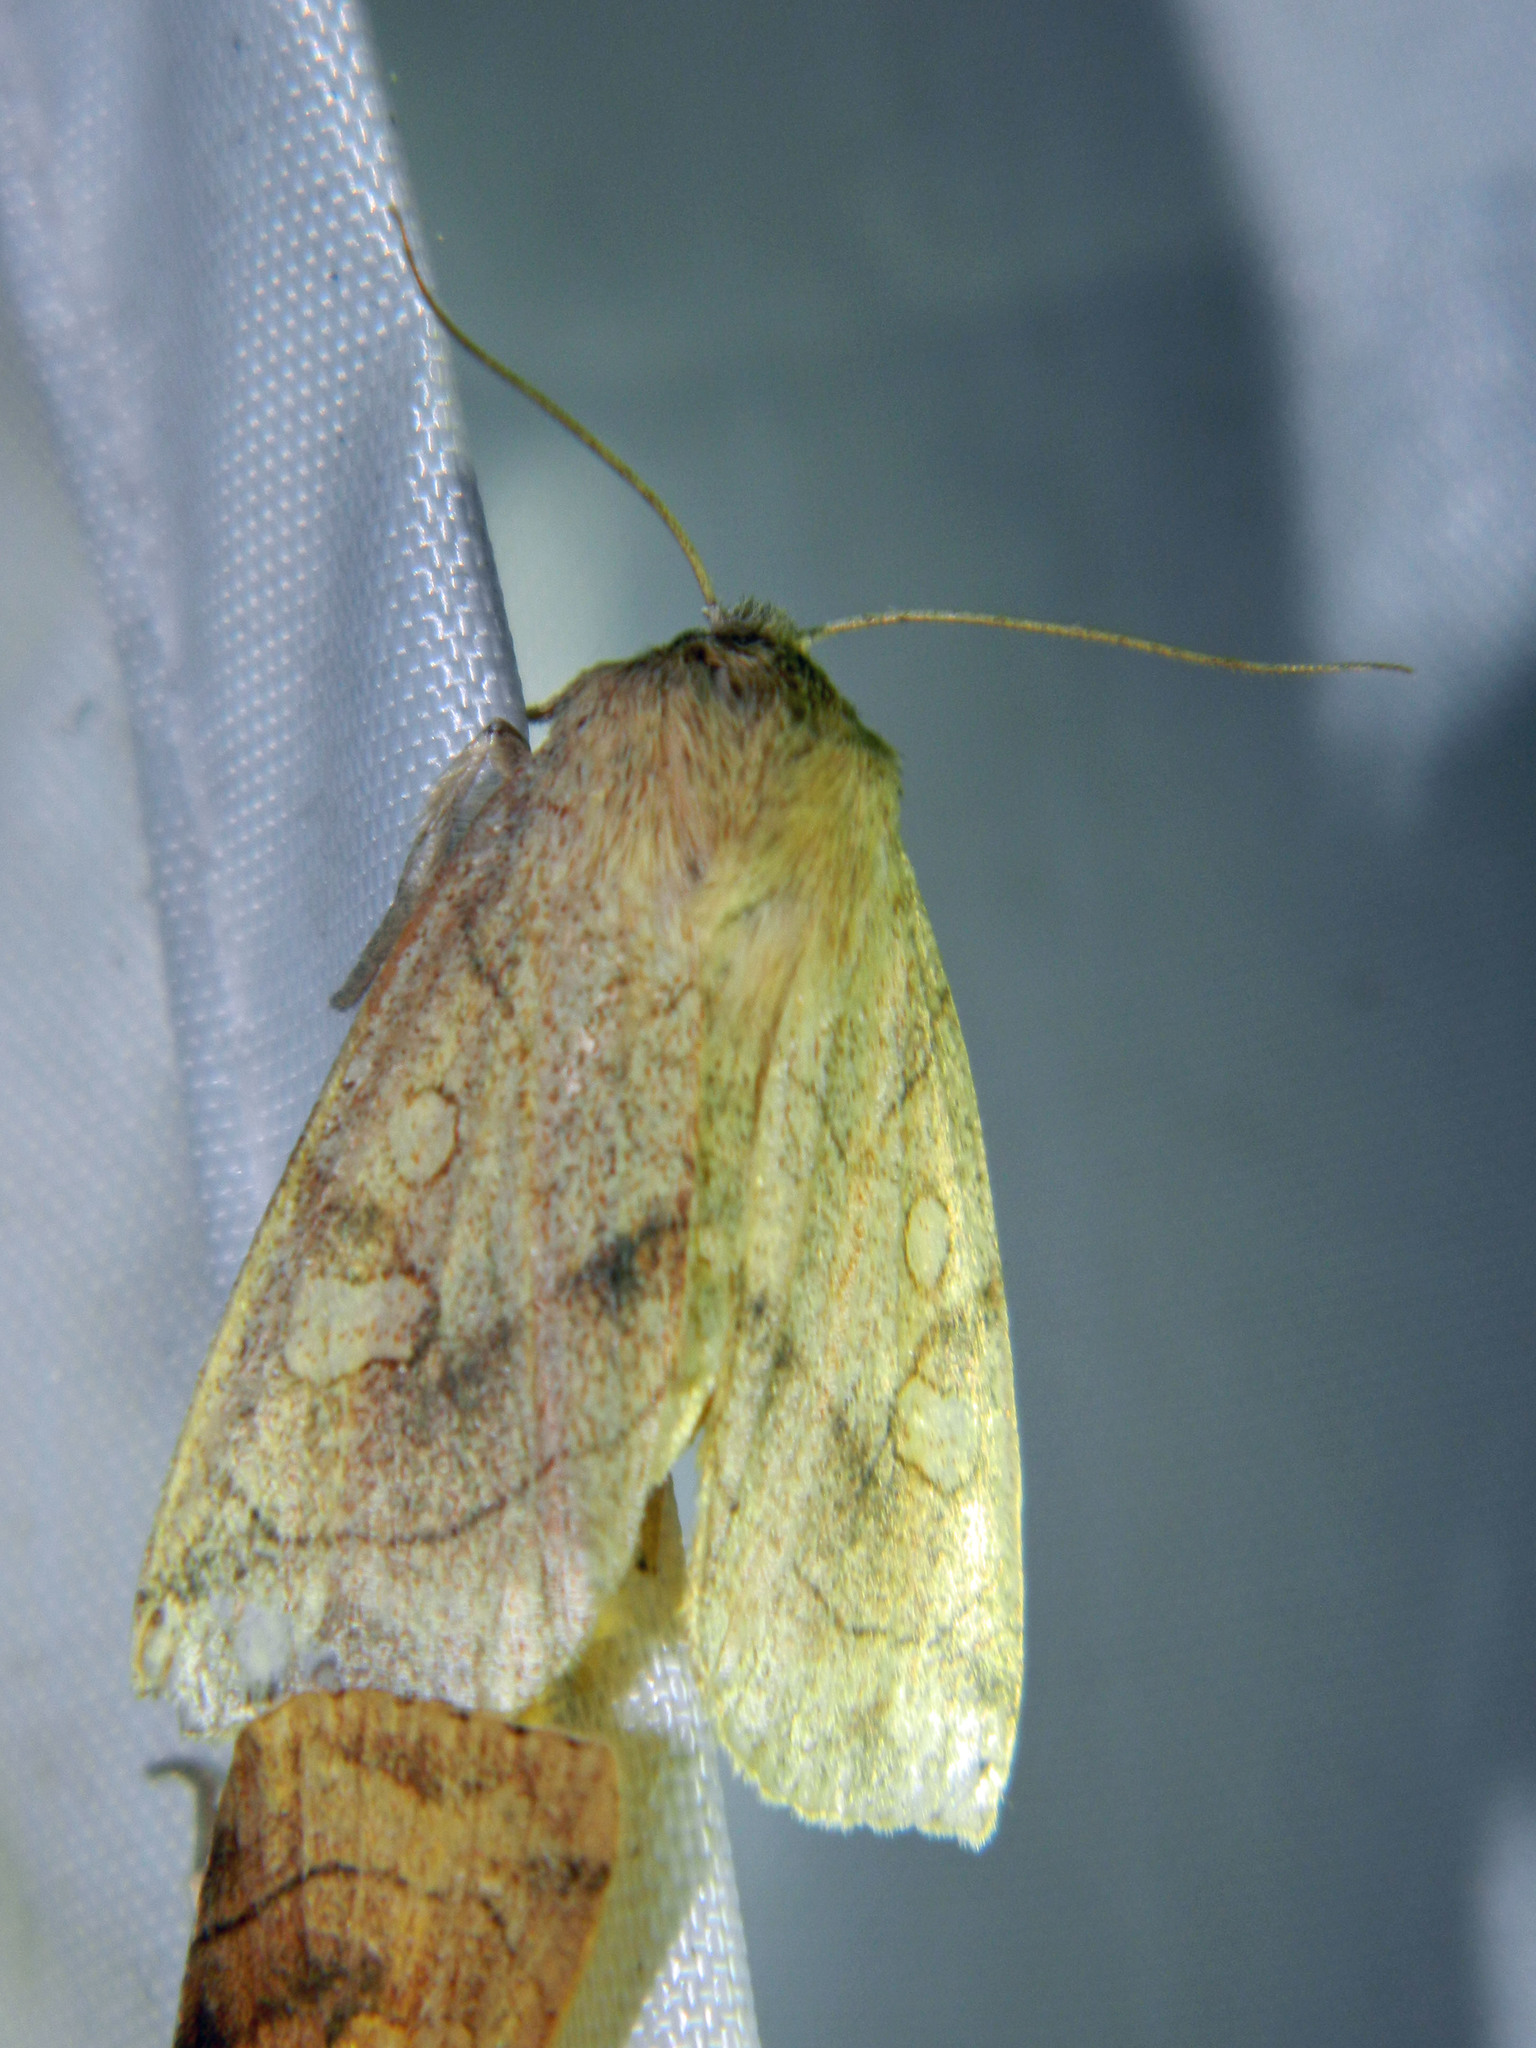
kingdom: Animalia
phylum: Arthropoda
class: Insecta
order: Lepidoptera
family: Noctuidae
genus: Enargia
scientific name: Enargia decolor
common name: Aspen twoleaf tier moth
